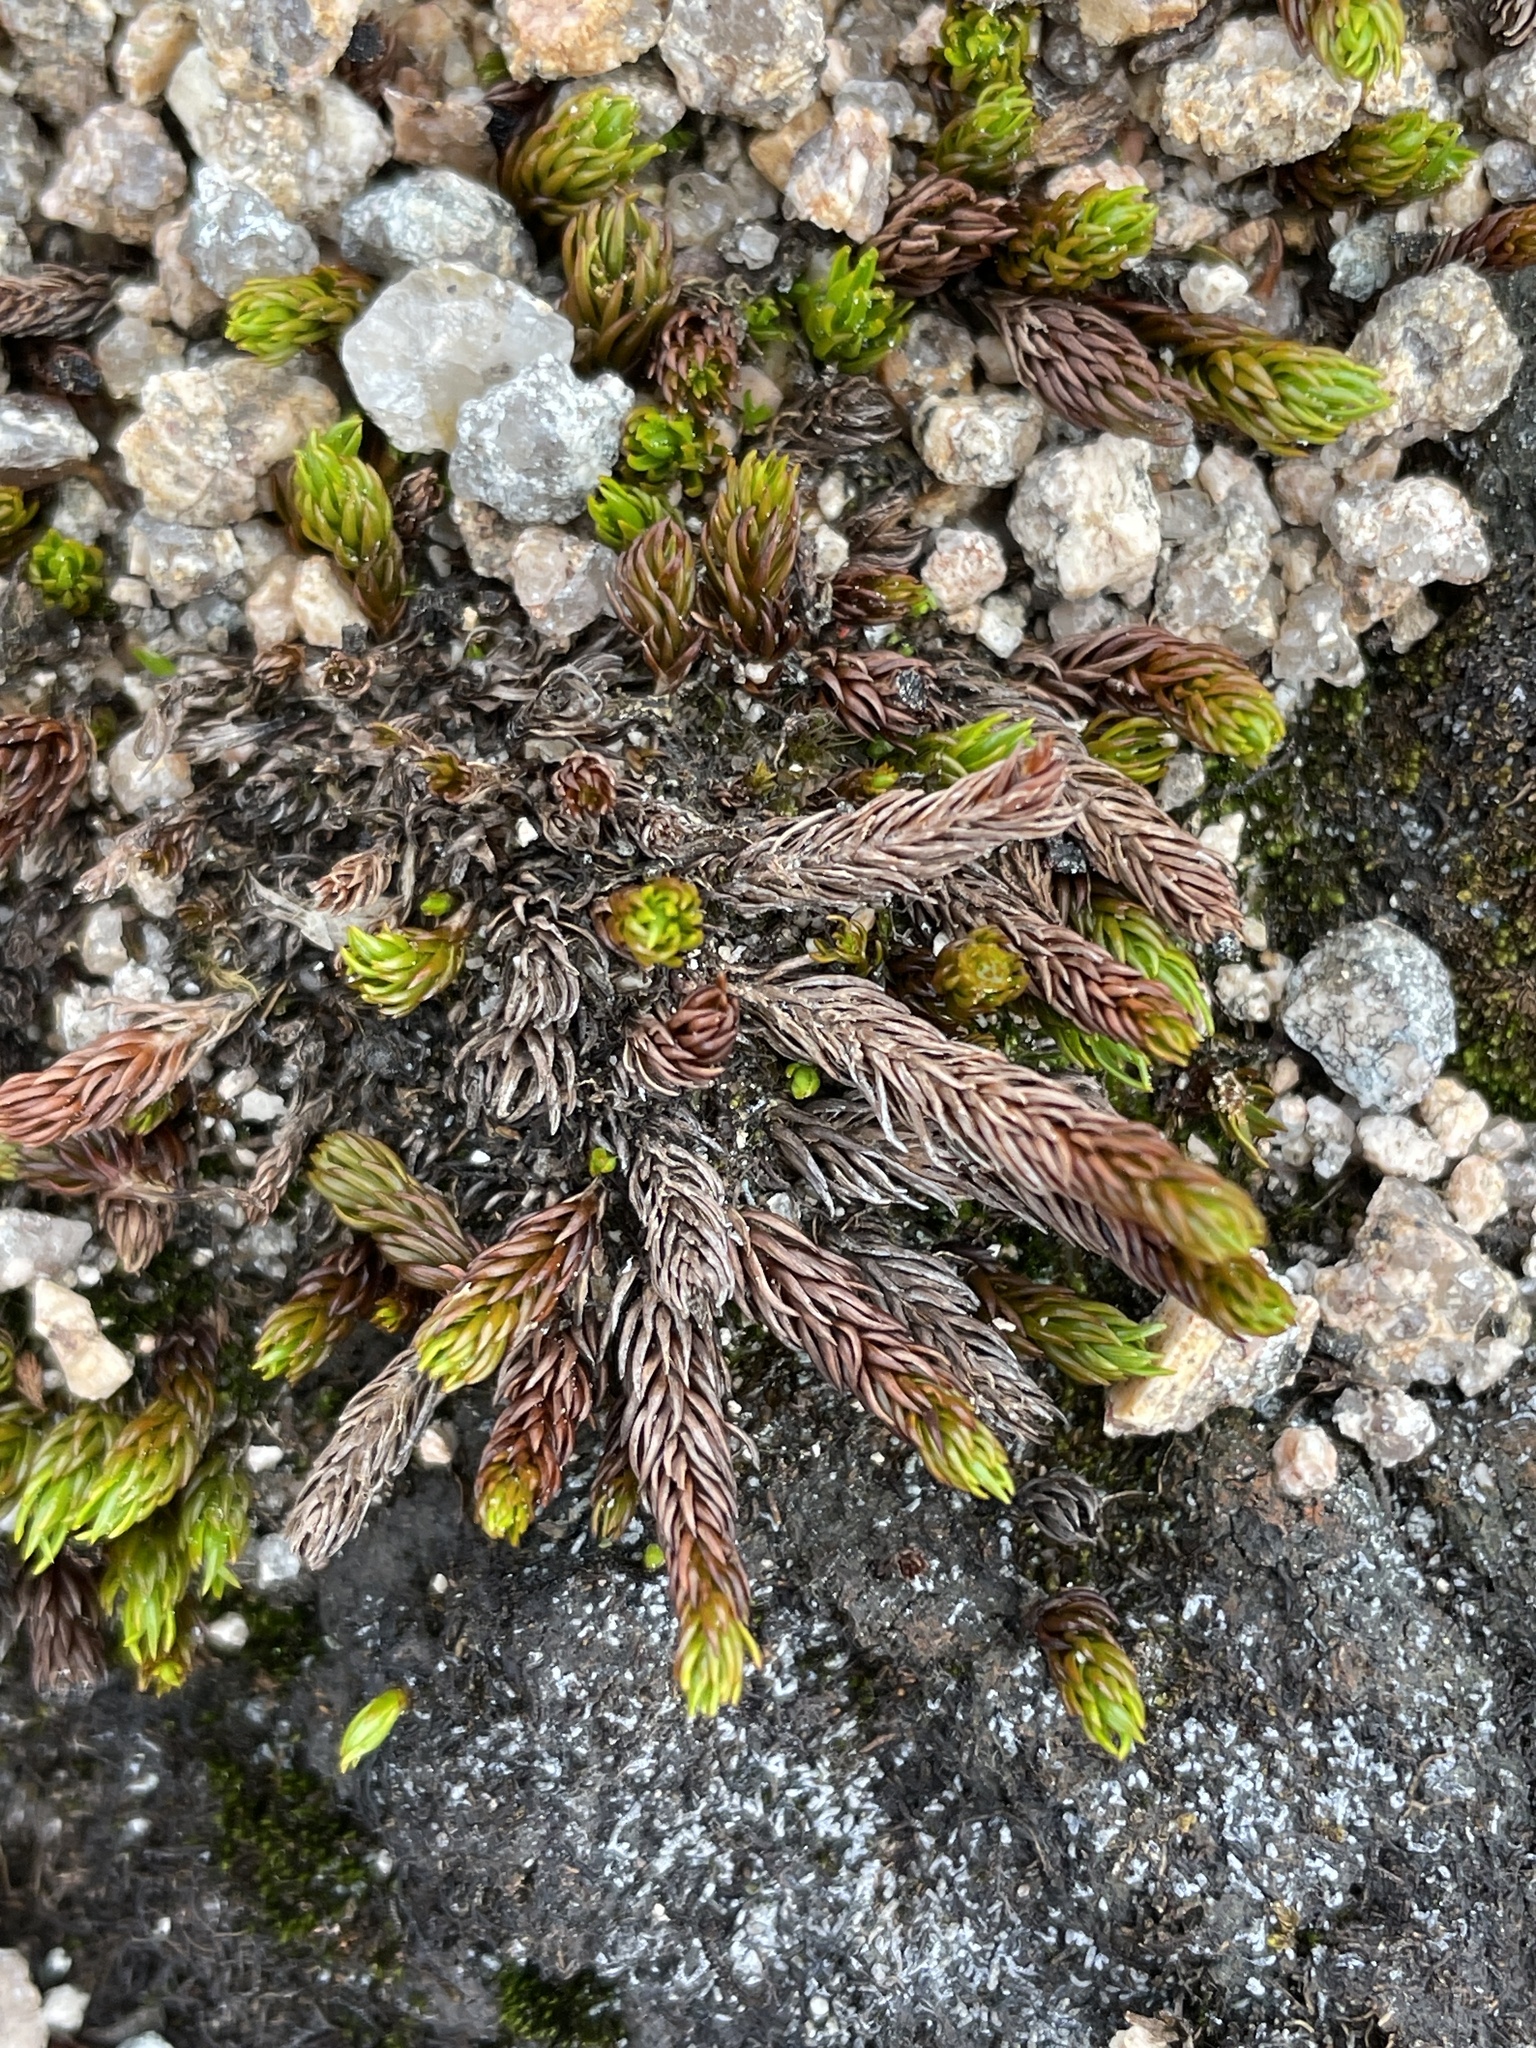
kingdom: Plantae
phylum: Bryophyta
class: Polytrichopsida
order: Polytrichales
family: Polytrichaceae
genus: Oligotrichum
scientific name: Oligotrichum hercynicum
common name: Hercynian hair moss
